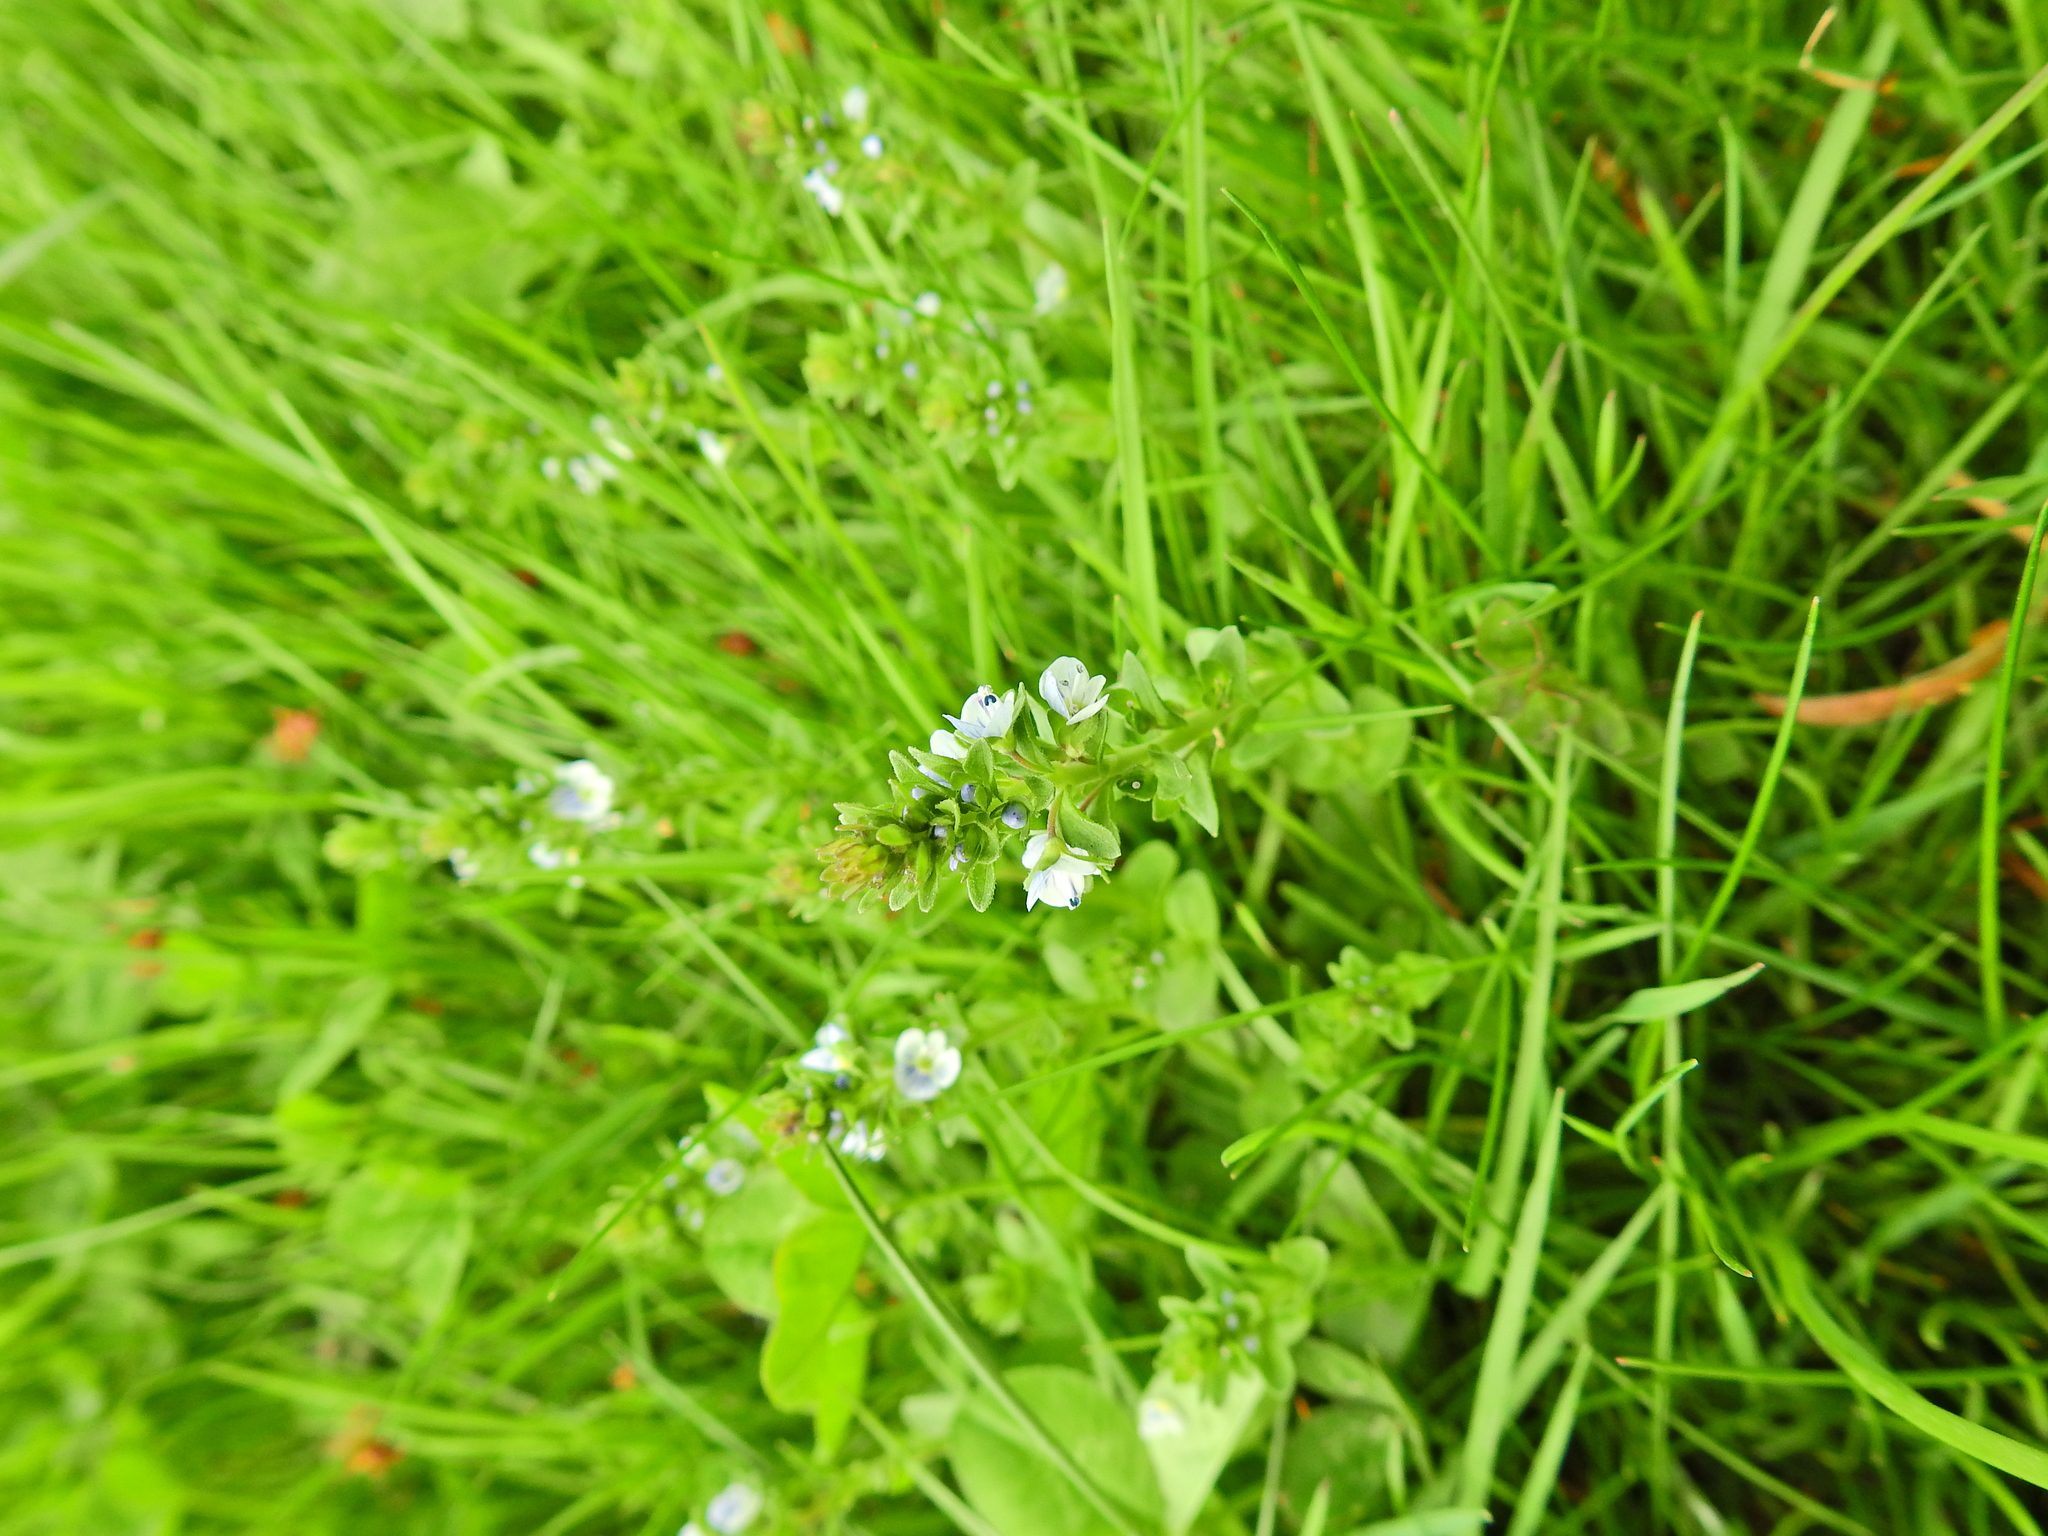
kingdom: Plantae
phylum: Tracheophyta
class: Magnoliopsida
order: Lamiales
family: Plantaginaceae
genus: Veronica
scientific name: Veronica serpyllifolia
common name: Thyme-leaved speedwell
